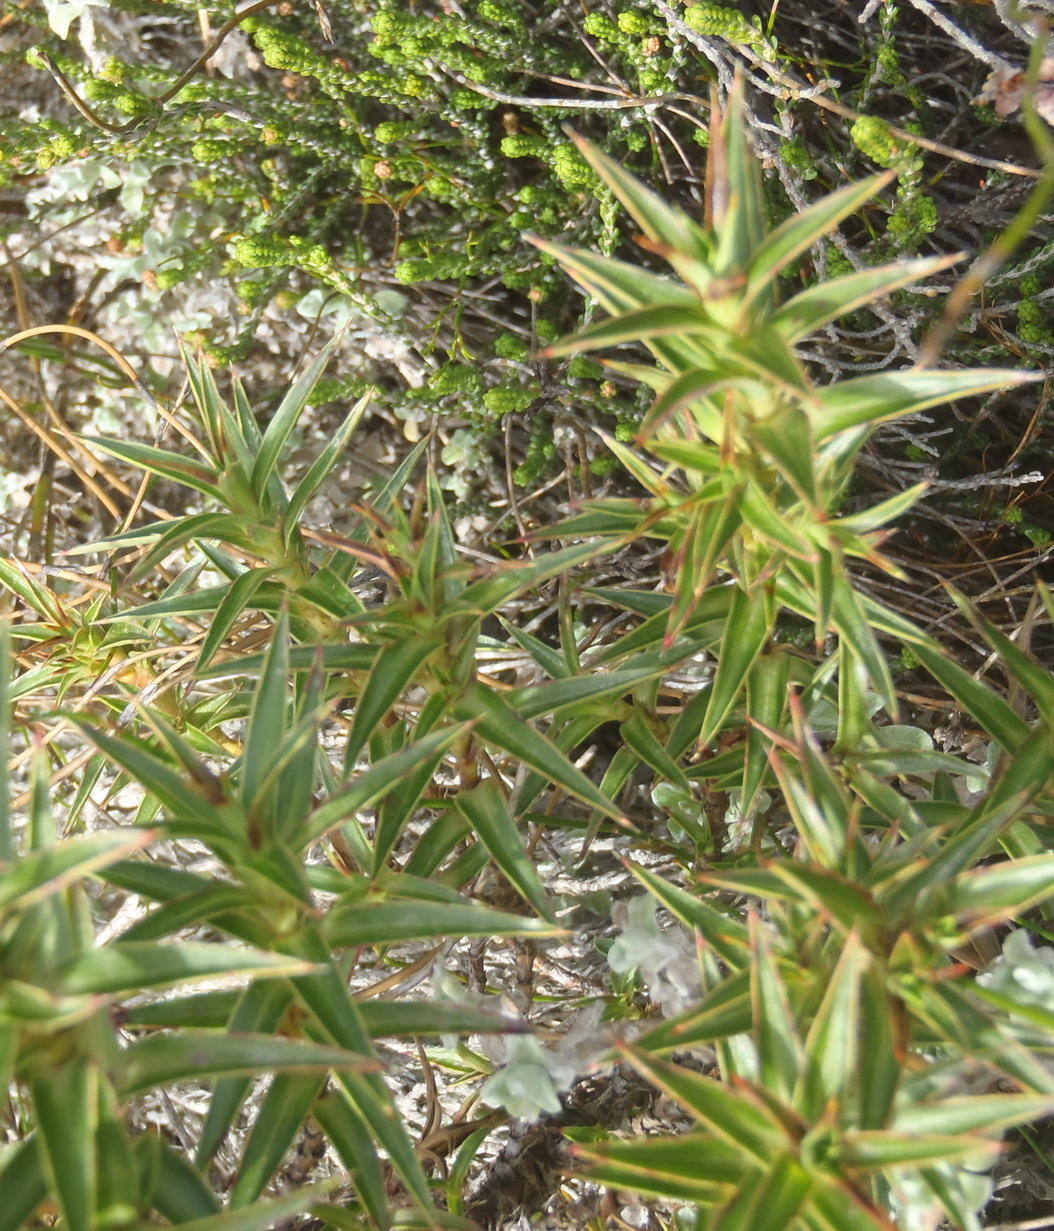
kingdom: Plantae
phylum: Tracheophyta
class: Magnoliopsida
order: Rosales
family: Rosaceae
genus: Cliffortia
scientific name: Cliffortia ilicifolia
